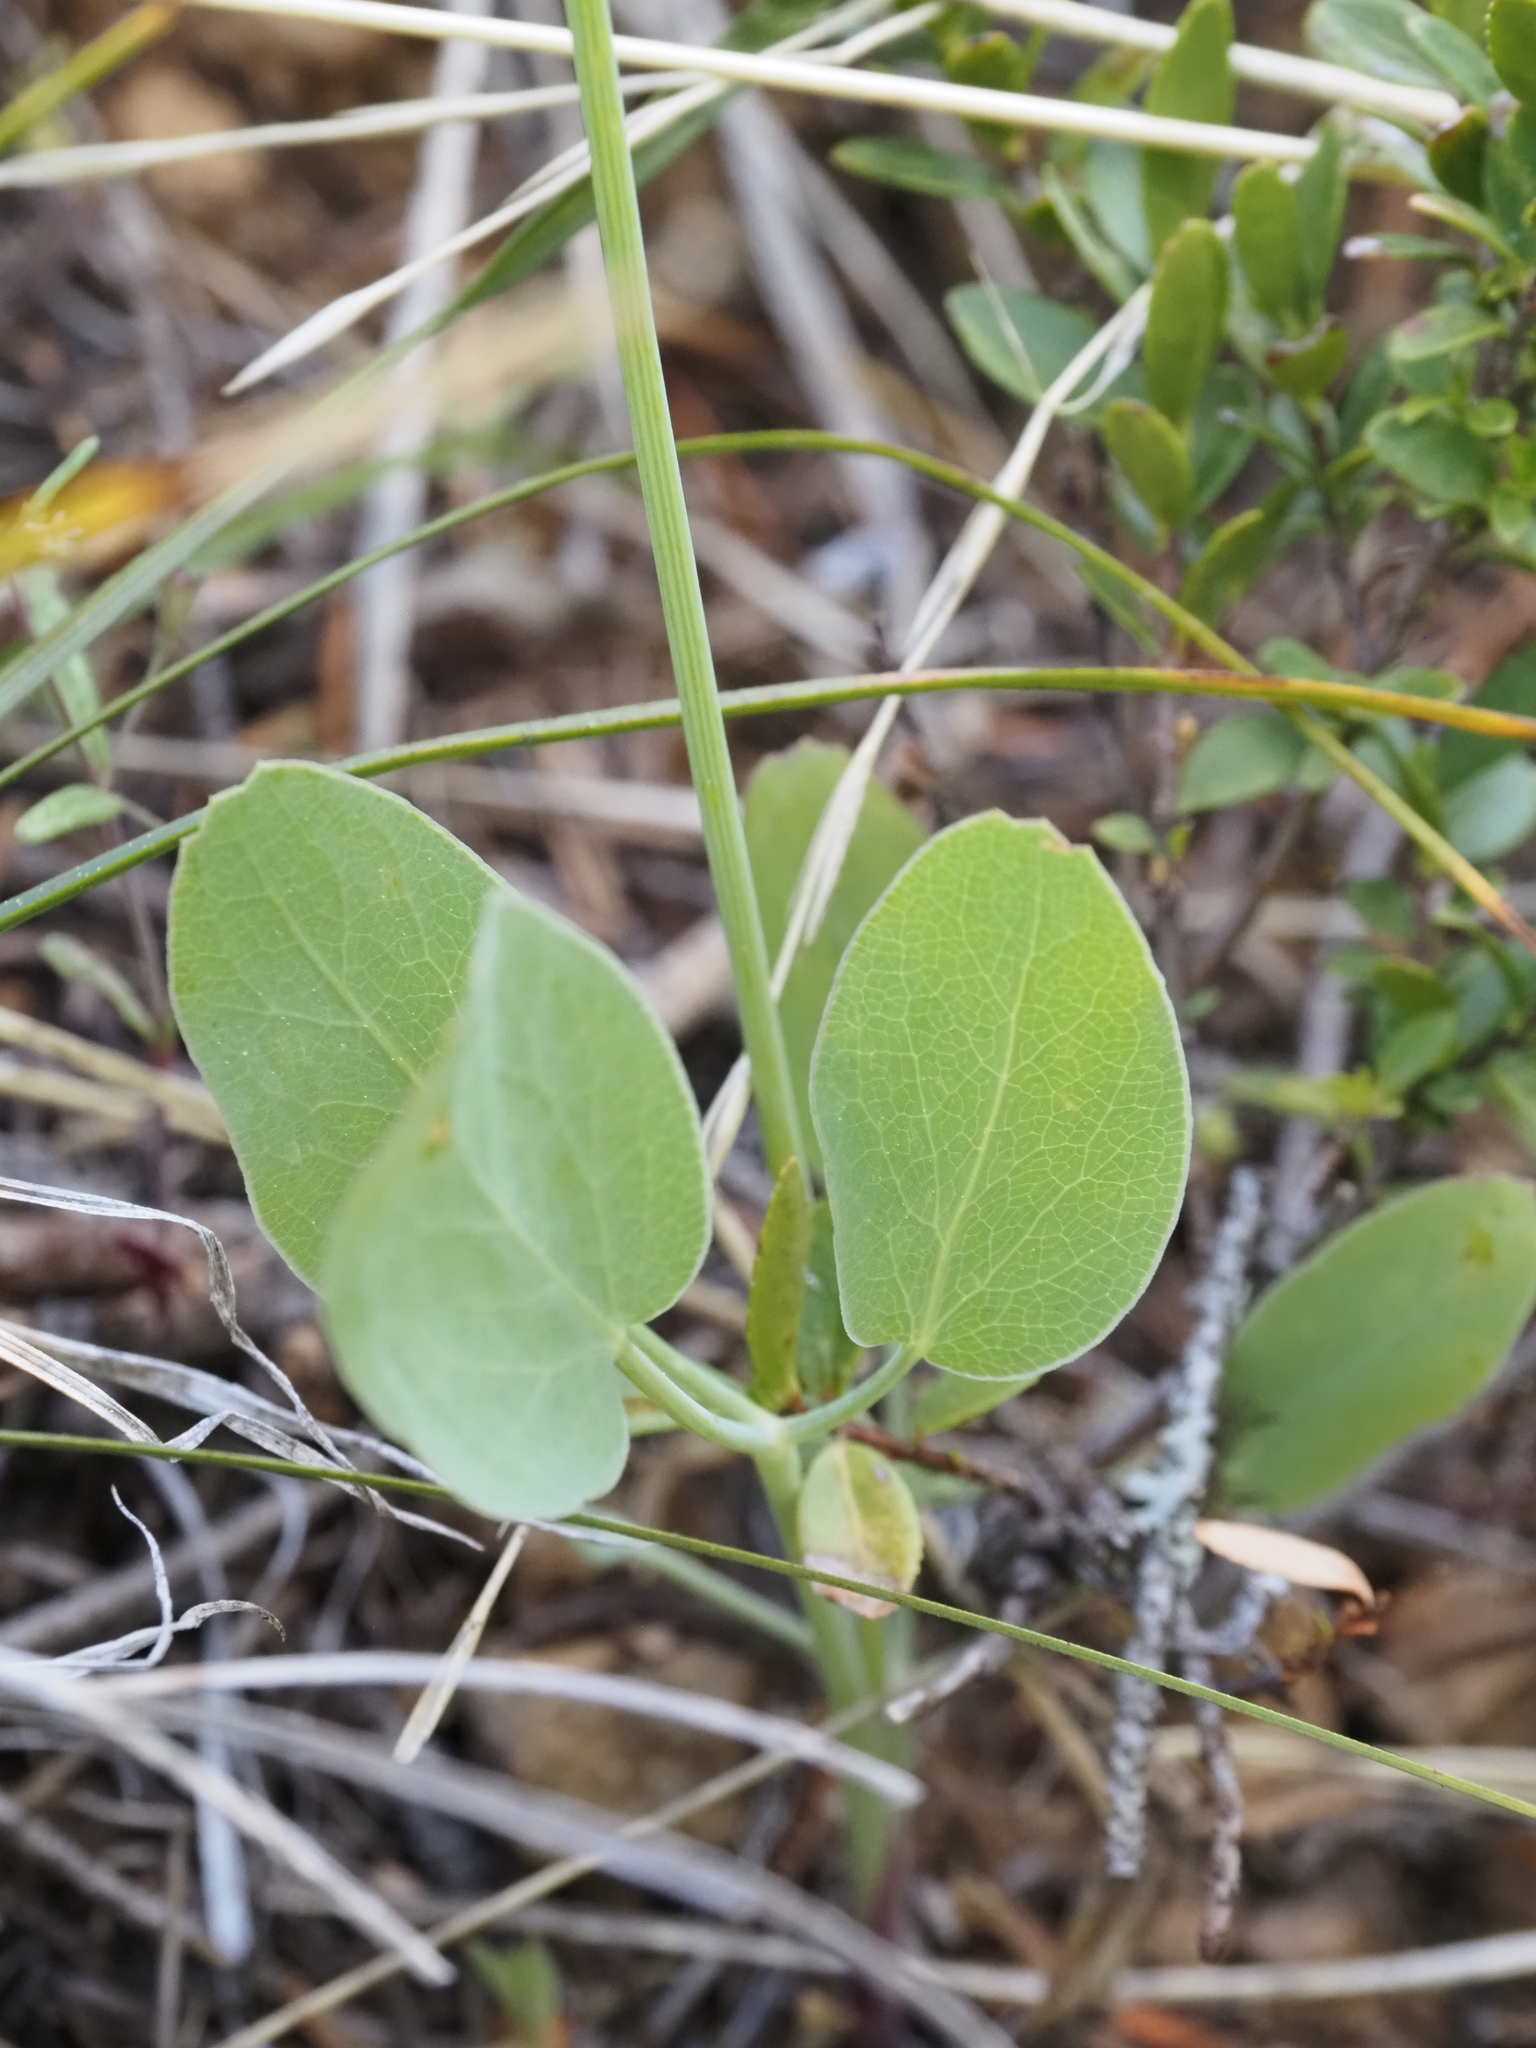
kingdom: Plantae
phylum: Tracheophyta
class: Magnoliopsida
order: Apiales
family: Apiaceae
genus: Lomatium
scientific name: Lomatium nudicaule
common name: Pestle lomatium
